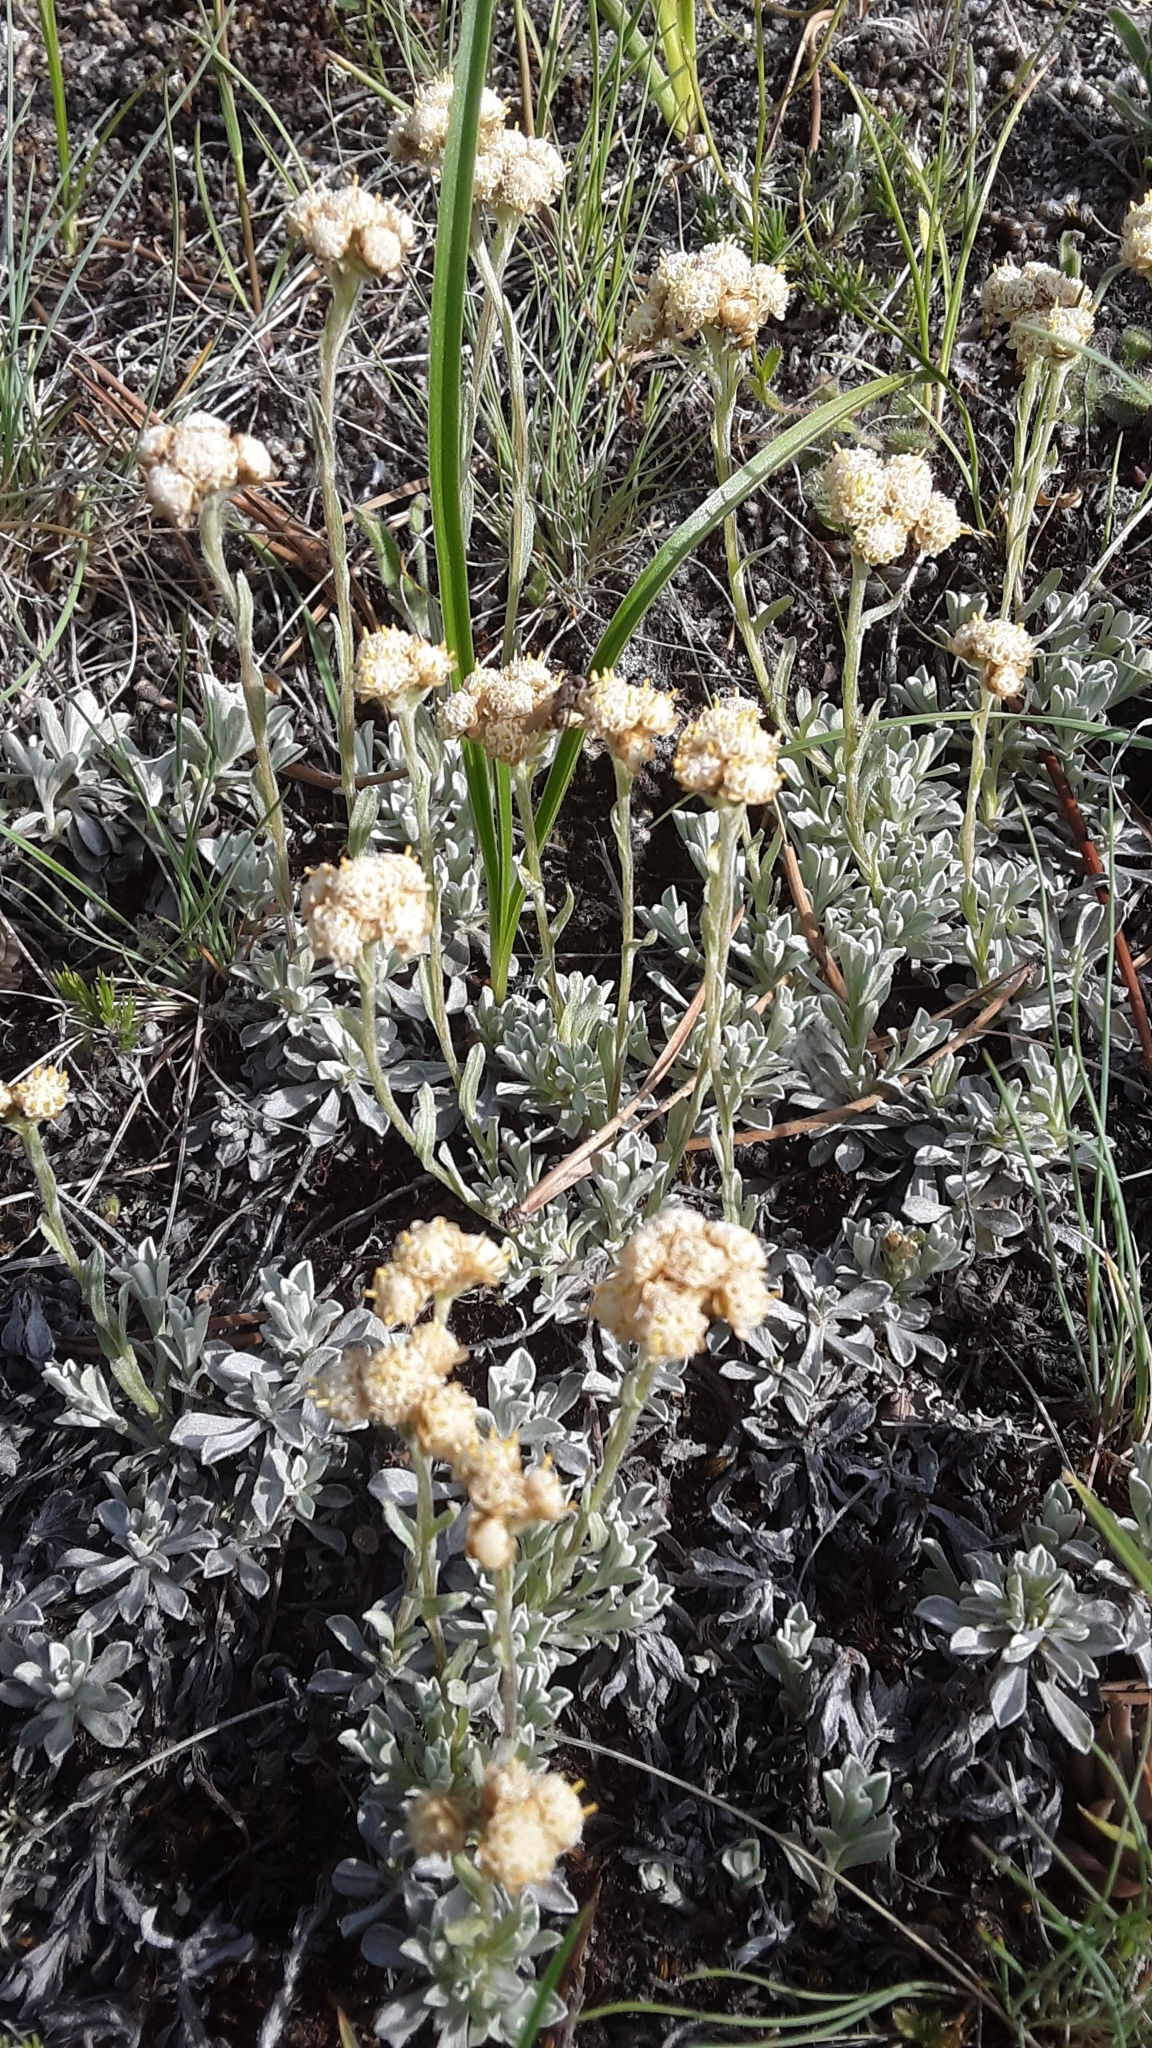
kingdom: Plantae
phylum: Tracheophyta
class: Magnoliopsida
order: Asterales
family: Asteraceae
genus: Antennaria
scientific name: Antennaria umbrinella
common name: Brown pussytoes
